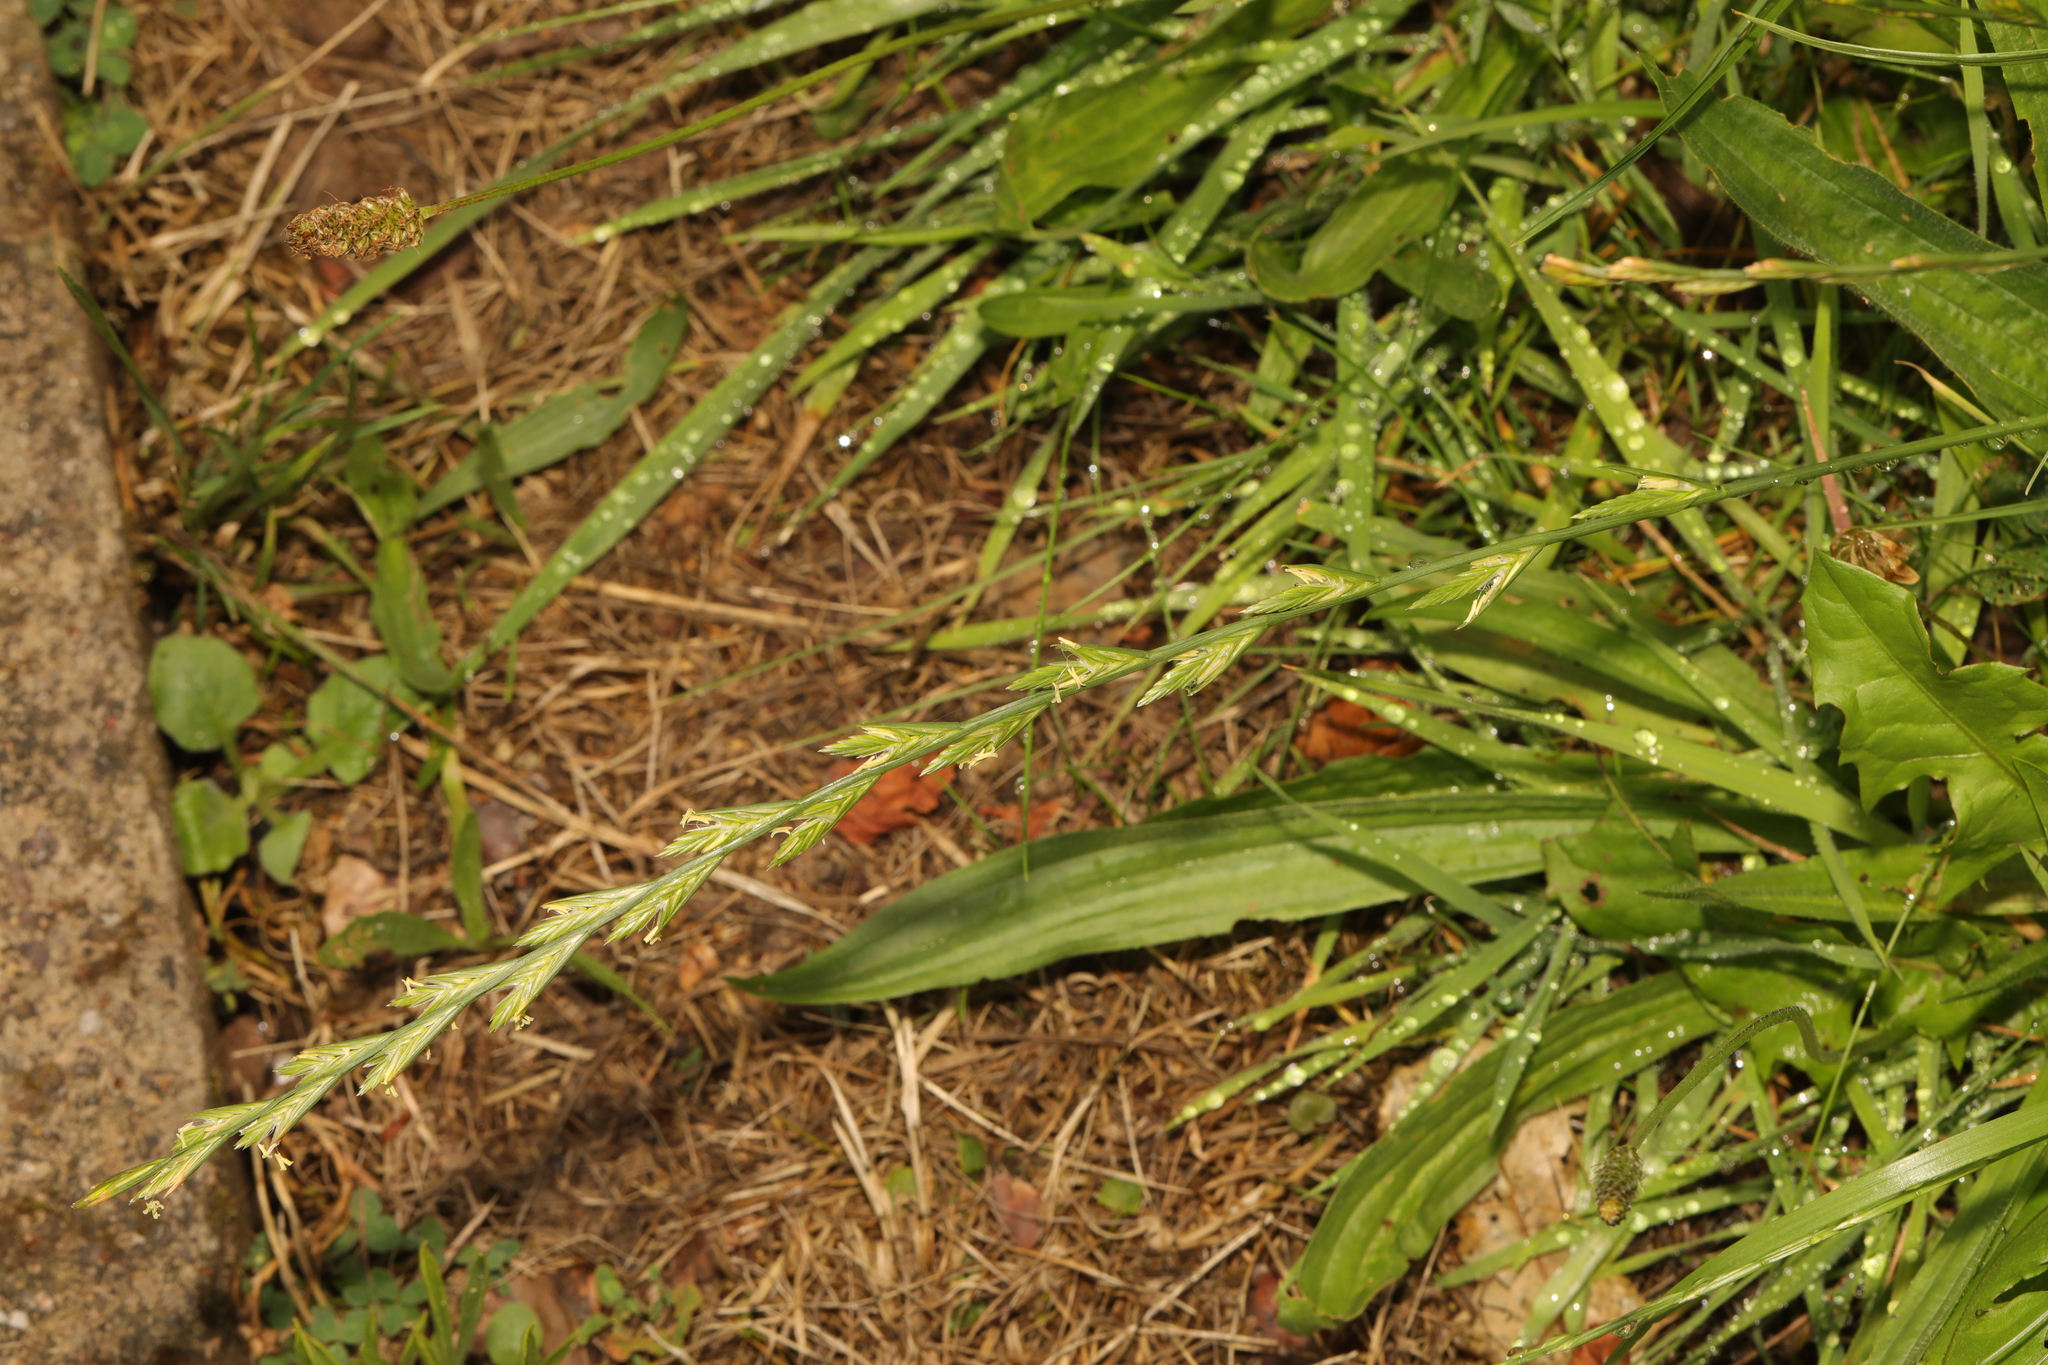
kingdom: Plantae
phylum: Tracheophyta
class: Liliopsida
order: Poales
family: Poaceae
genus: Lolium
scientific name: Lolium perenne
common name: Perennial ryegrass
